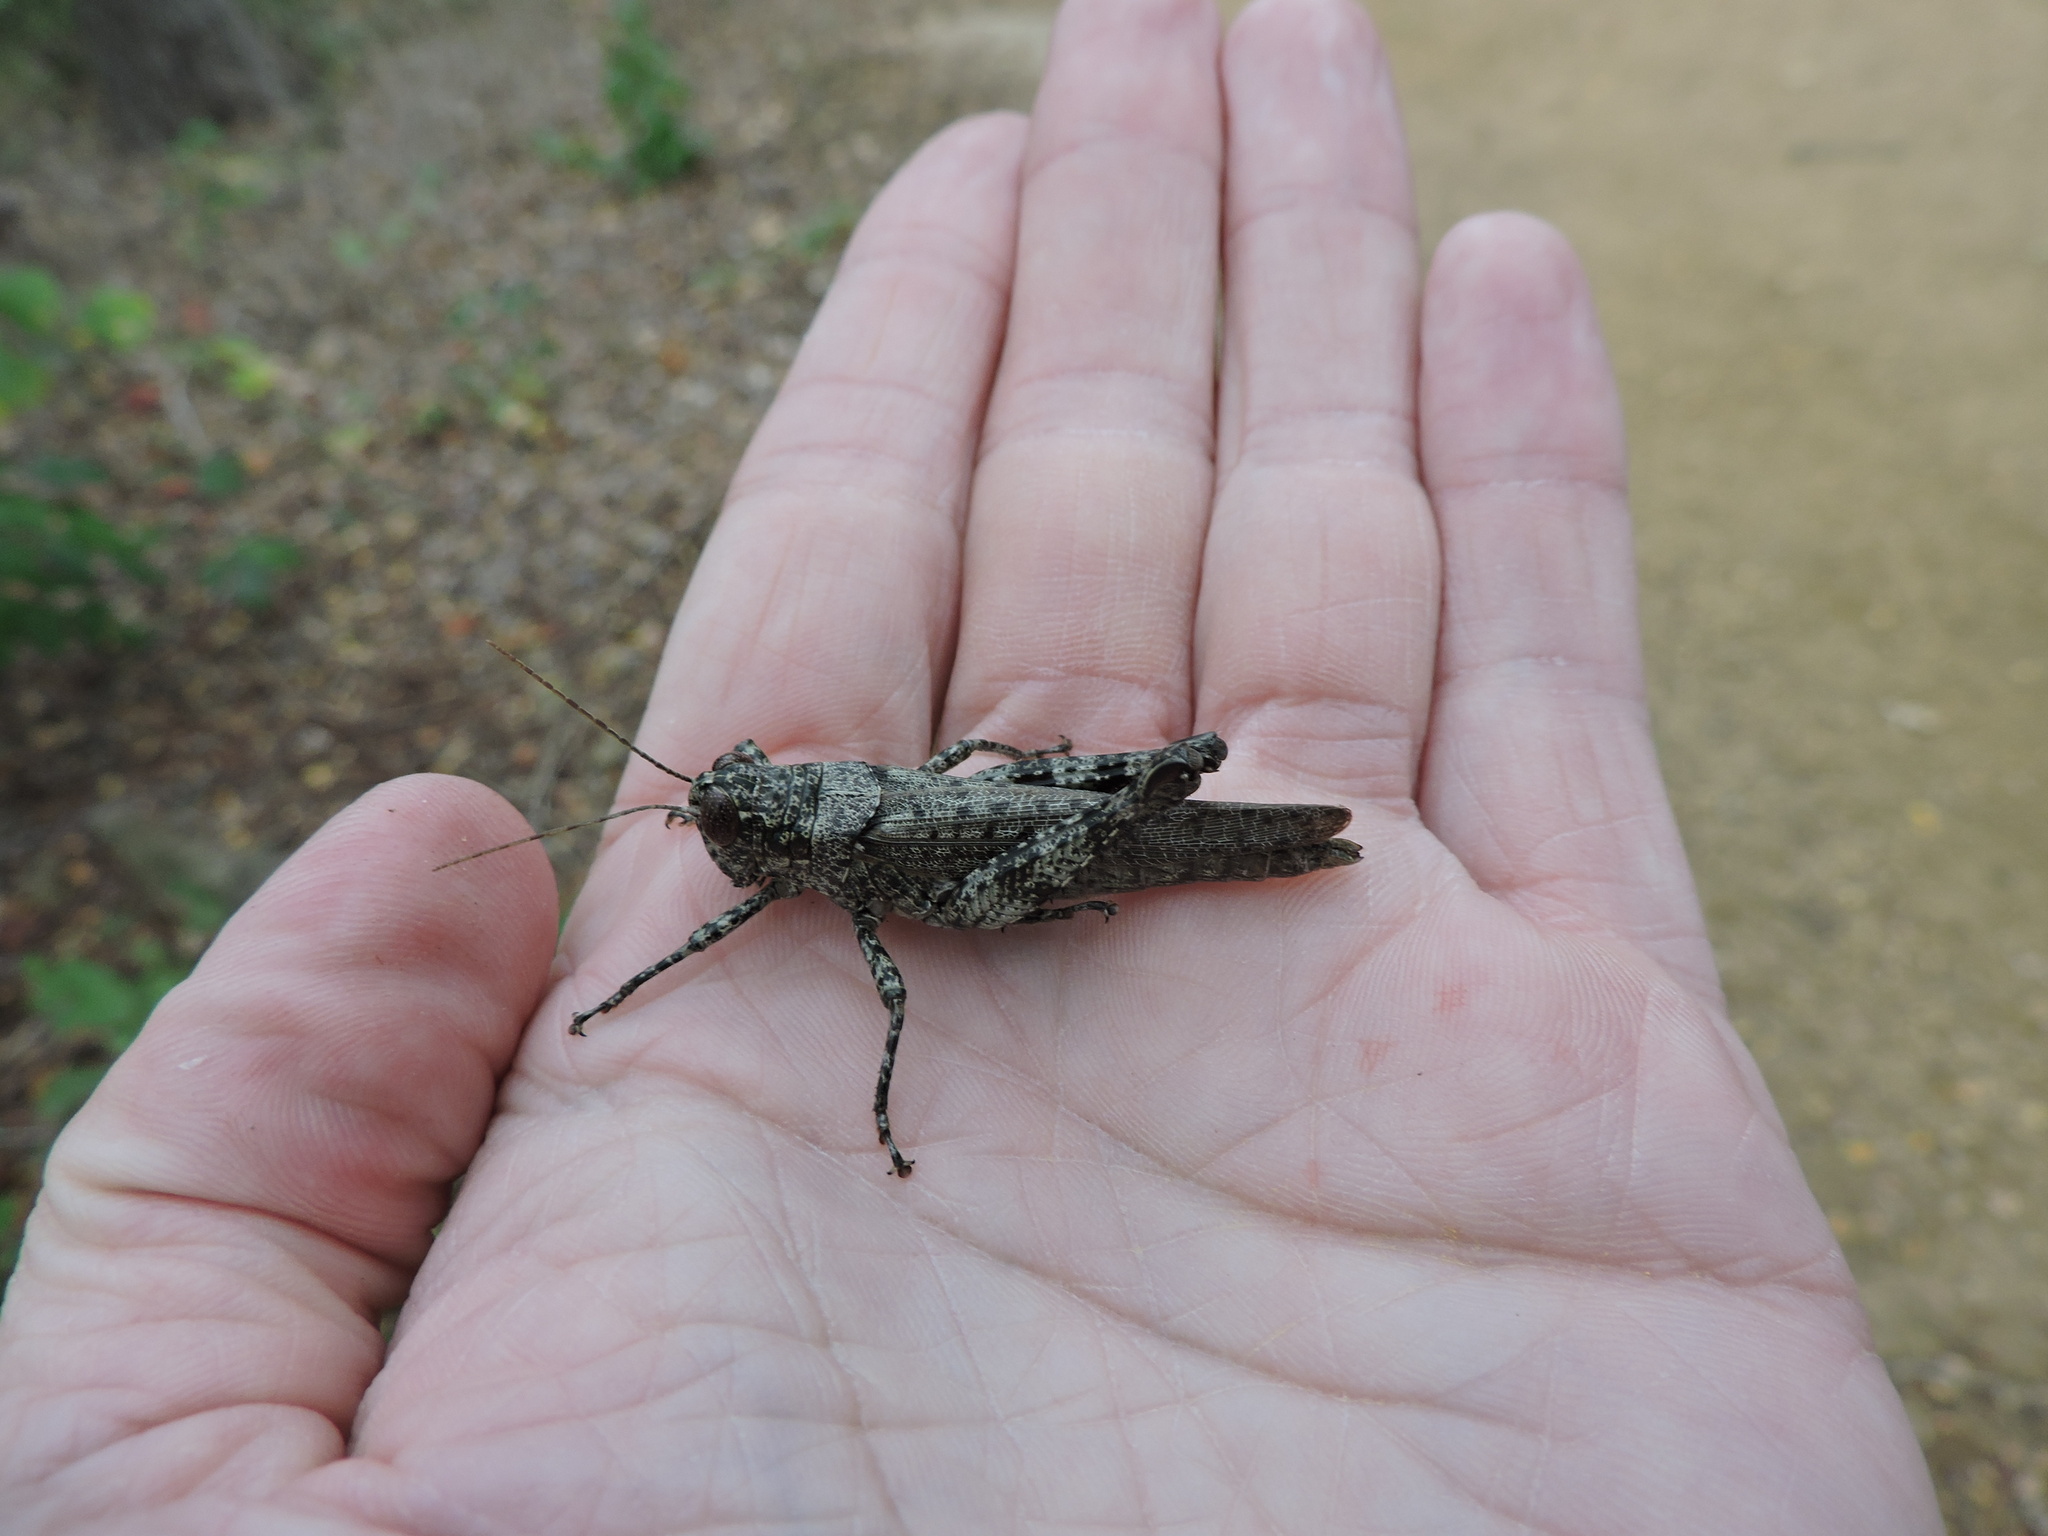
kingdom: Animalia
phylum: Arthropoda
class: Insecta
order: Orthoptera
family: Acrididae
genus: Melanoplus
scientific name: Melanoplus punctulatus
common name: Pine-tree spur-throat grasshopper
